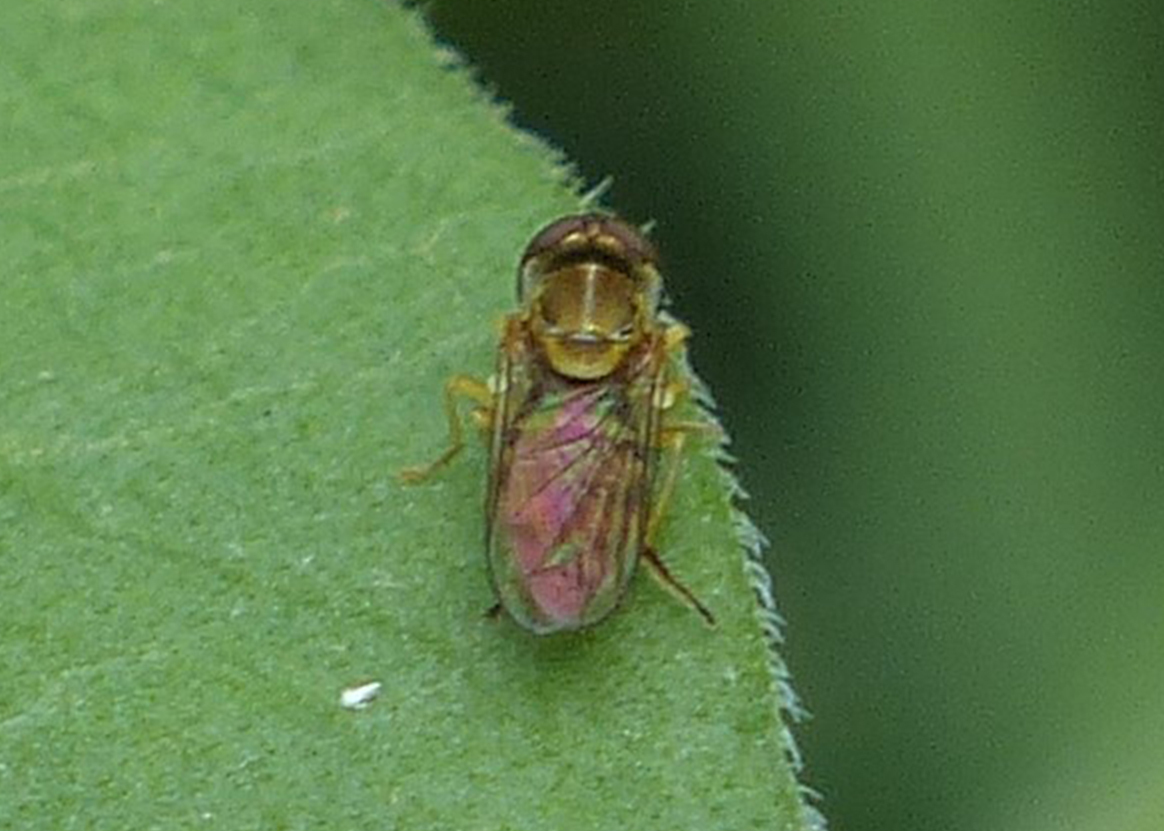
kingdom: Animalia
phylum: Arthropoda
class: Insecta
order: Diptera
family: Syrphidae
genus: Toxomerus
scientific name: Toxomerus marginatus
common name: Syrphid fly
